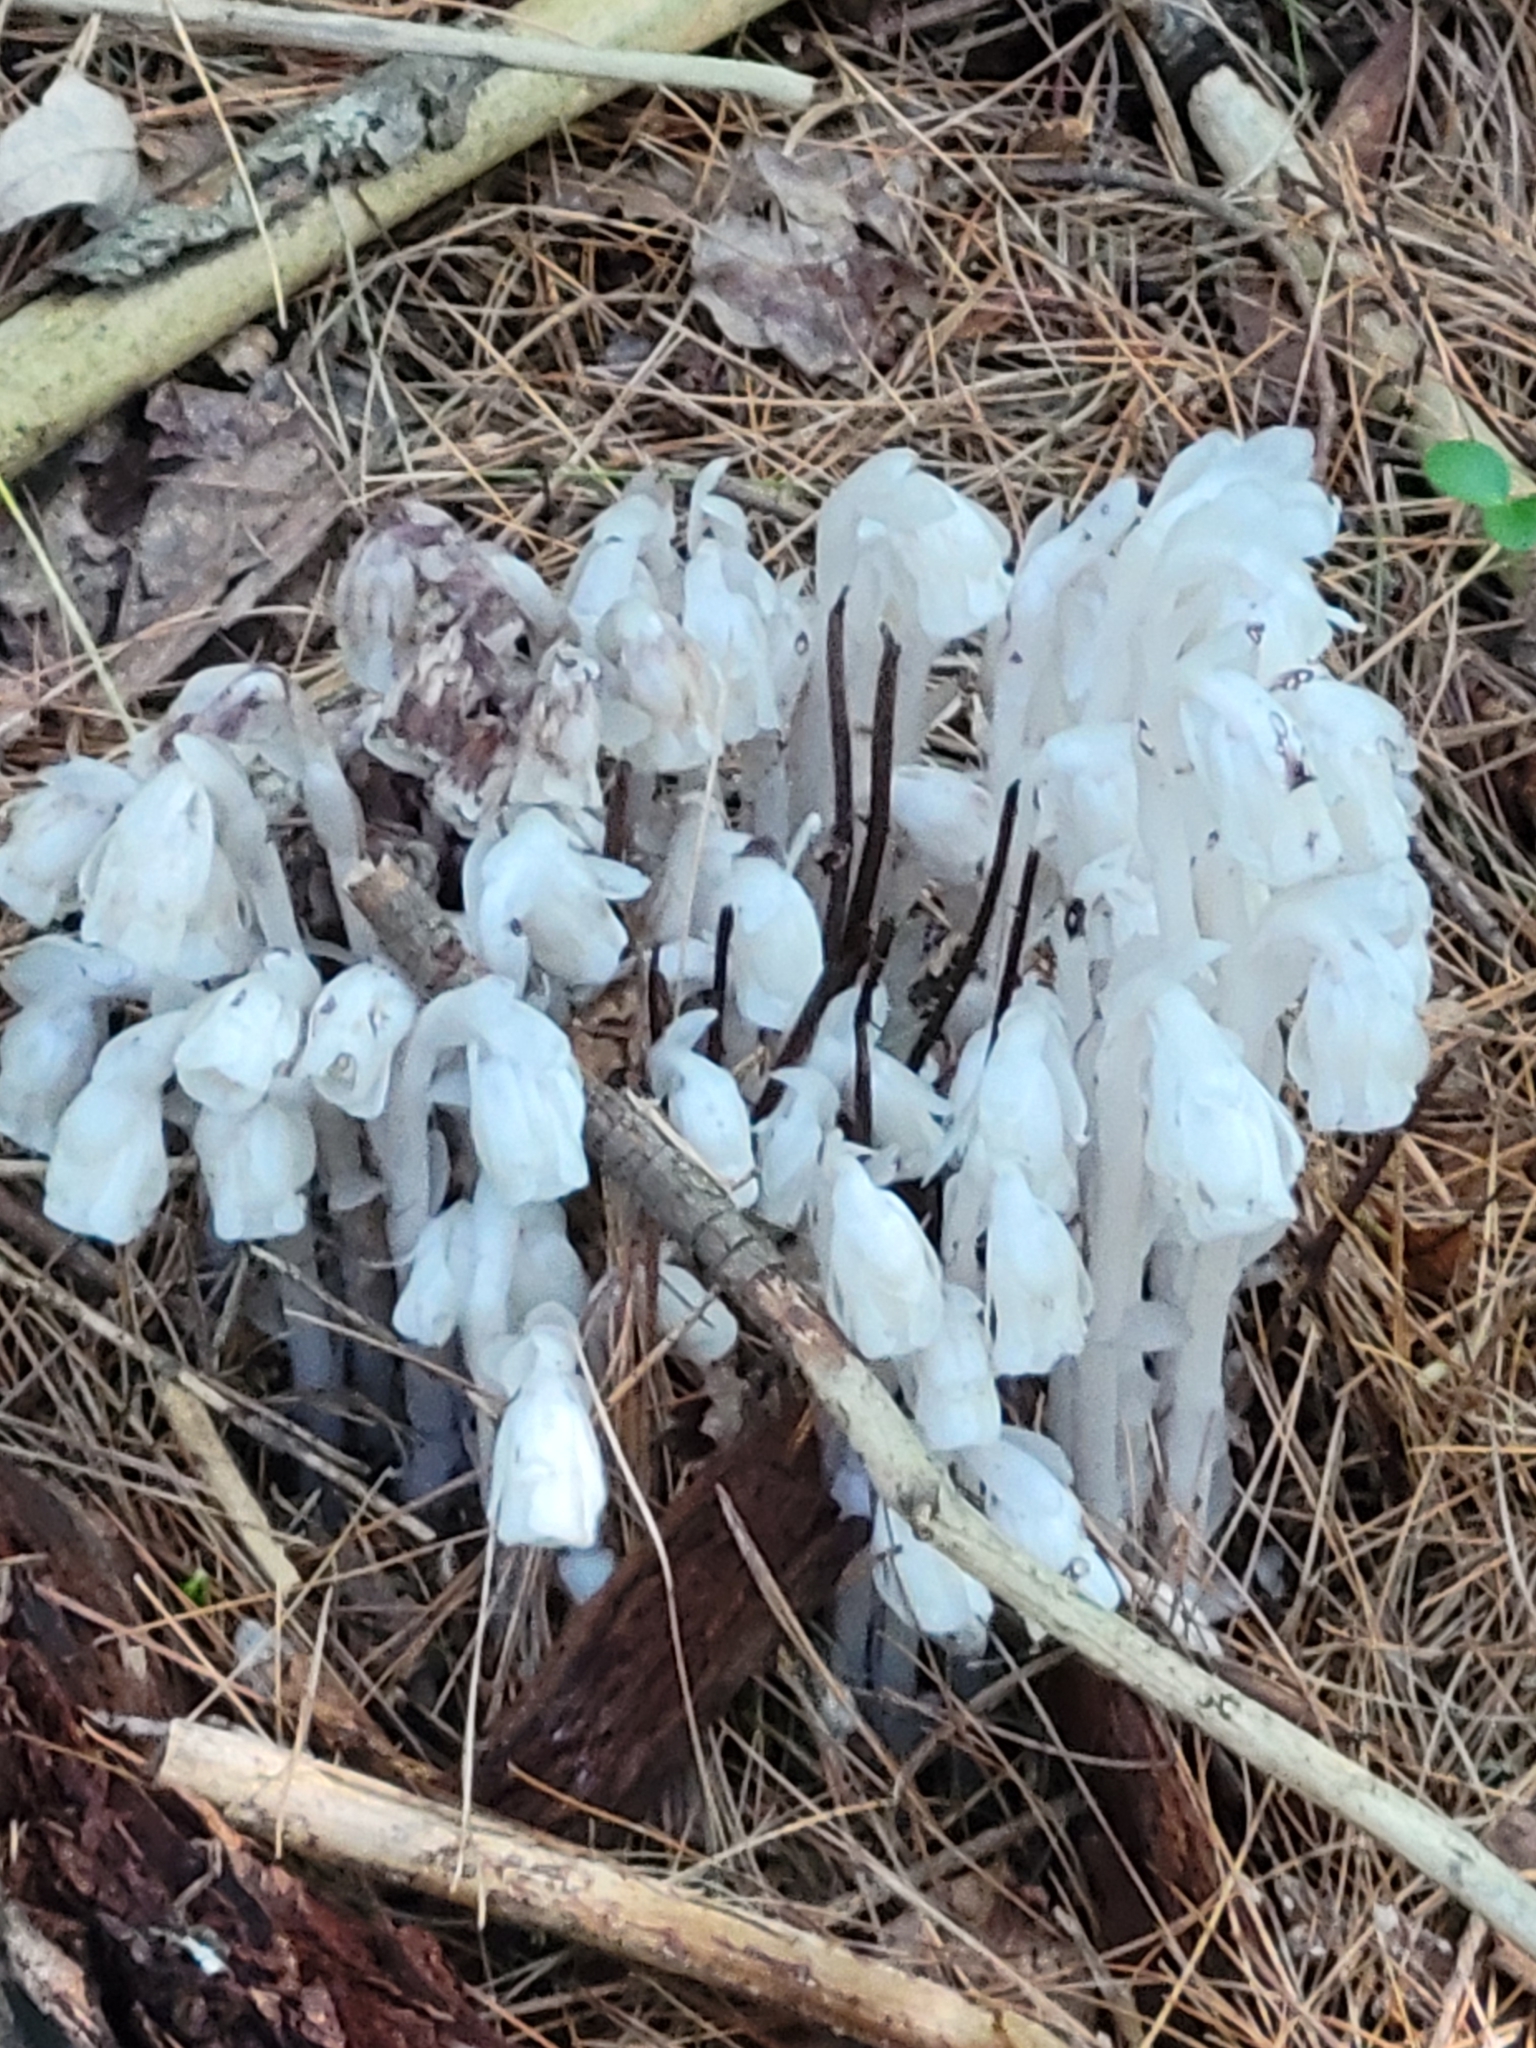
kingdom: Plantae
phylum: Tracheophyta
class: Magnoliopsida
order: Ericales
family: Ericaceae
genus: Monotropa
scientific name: Monotropa uniflora
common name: Convulsion root
